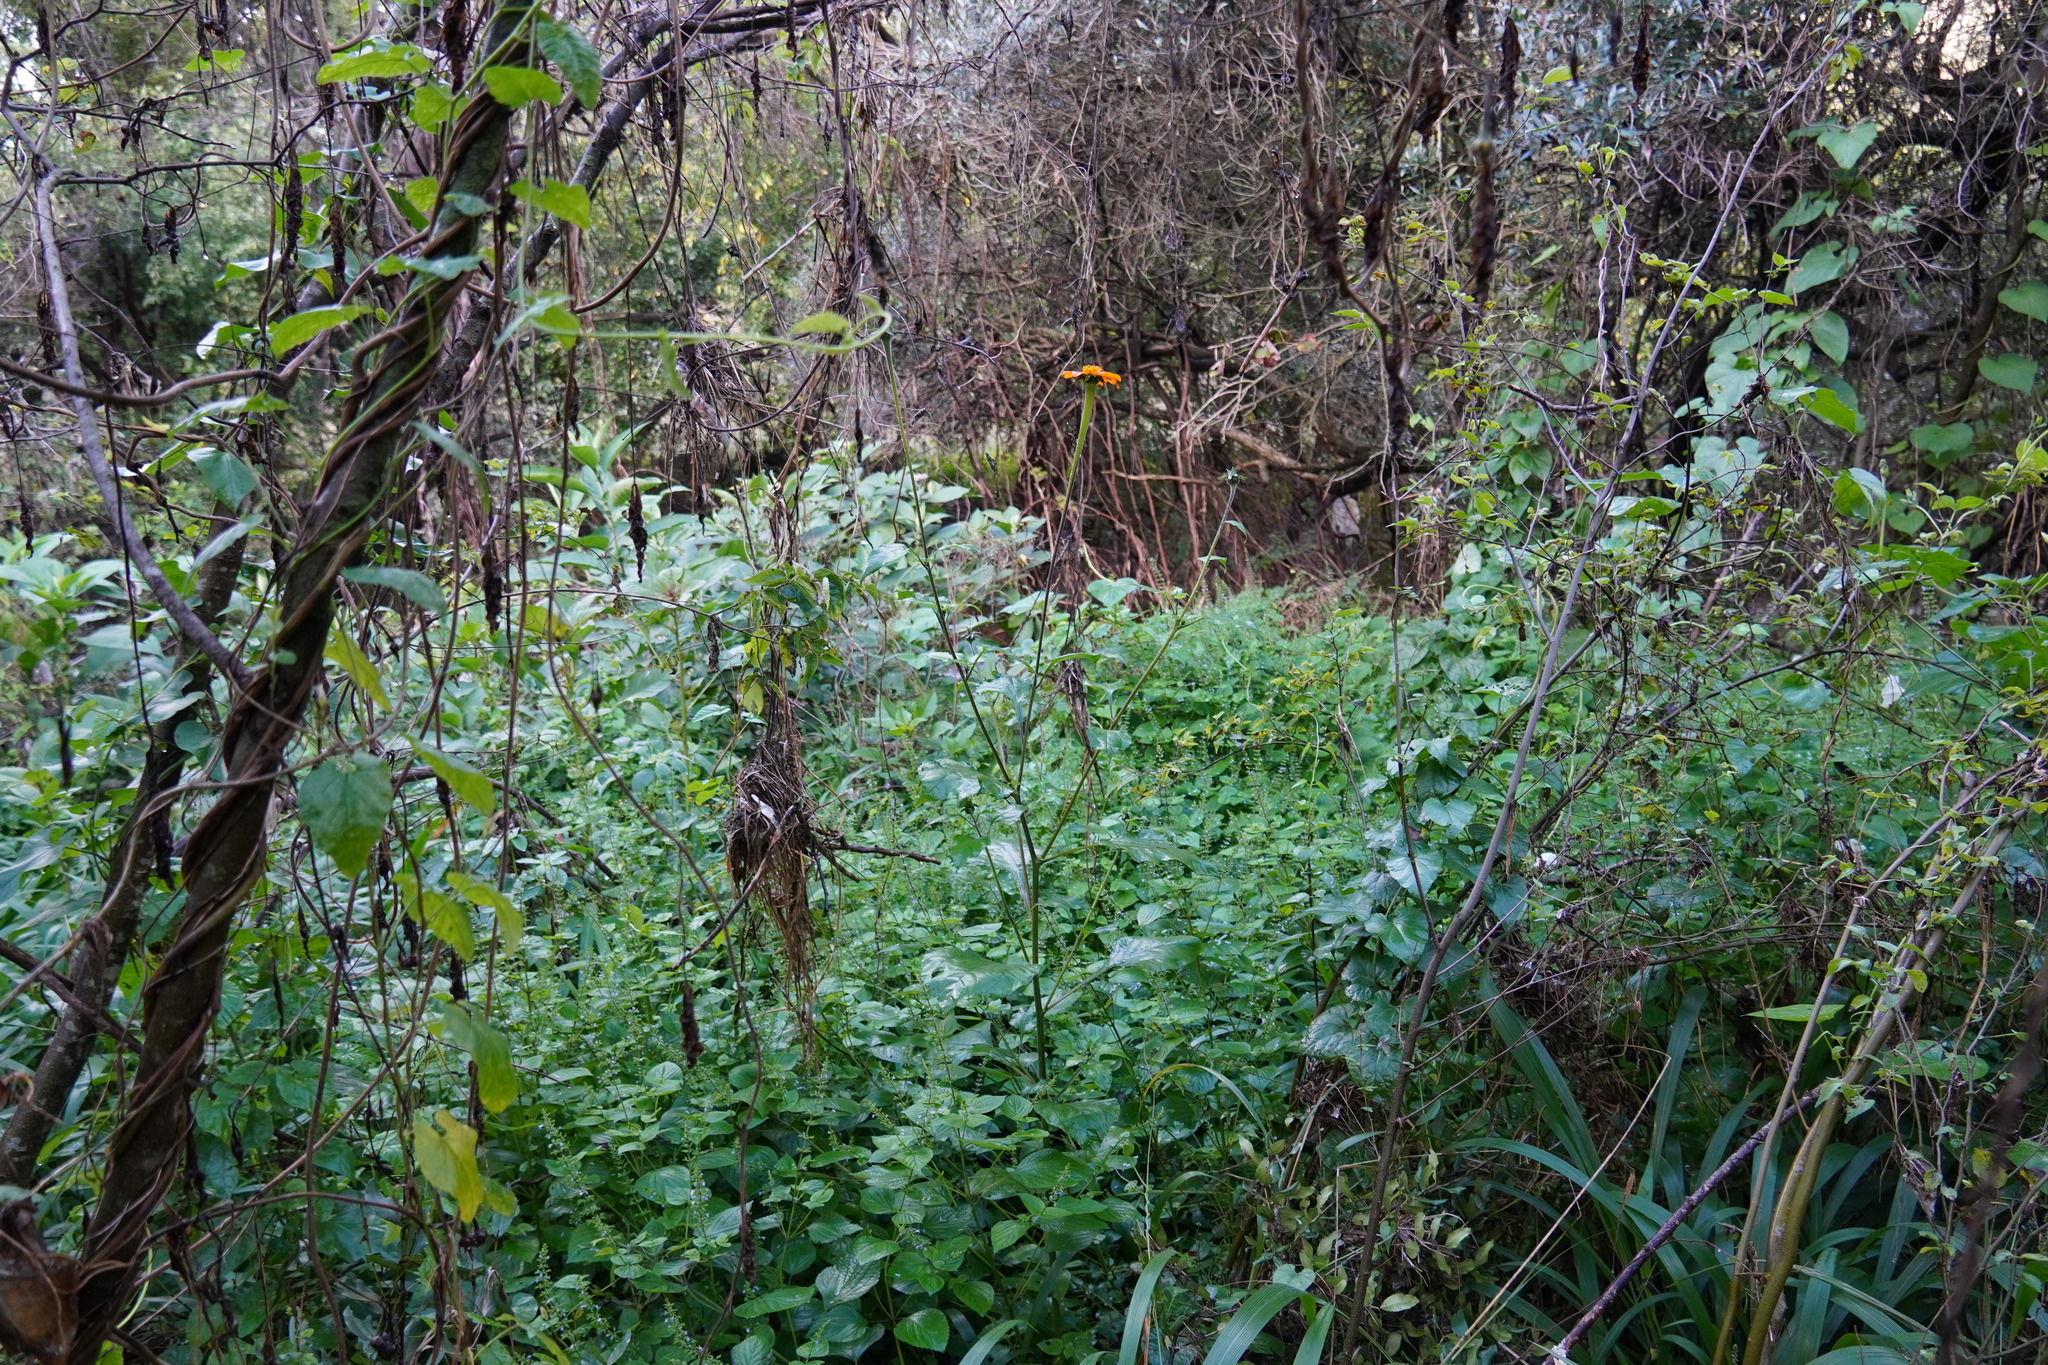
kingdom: Plantae
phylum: Tracheophyta
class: Magnoliopsida
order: Asterales
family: Asteraceae
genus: Tithonia
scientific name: Tithonia rotundifolia
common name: Sunflower
